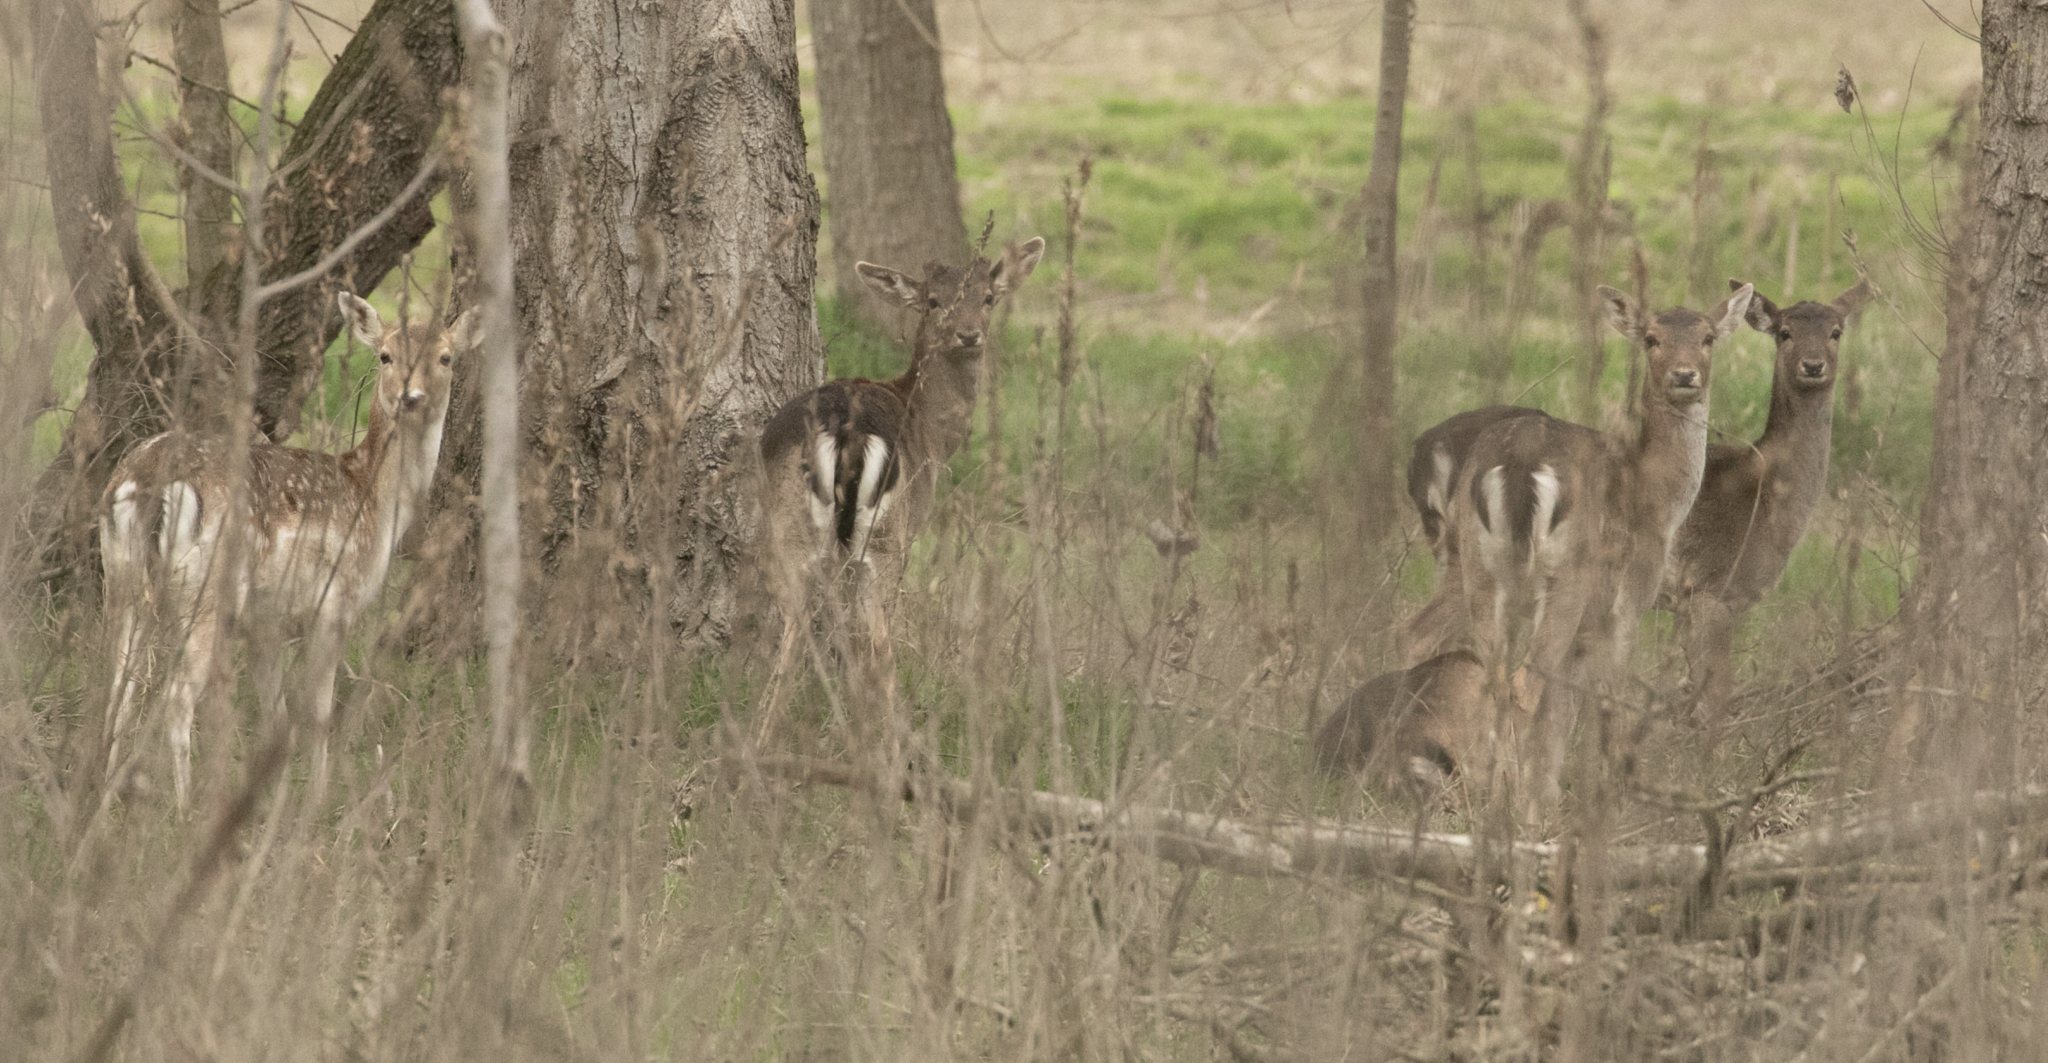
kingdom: Animalia
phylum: Chordata
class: Mammalia
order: Artiodactyla
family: Cervidae
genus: Dama
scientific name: Dama dama
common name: Fallow deer
